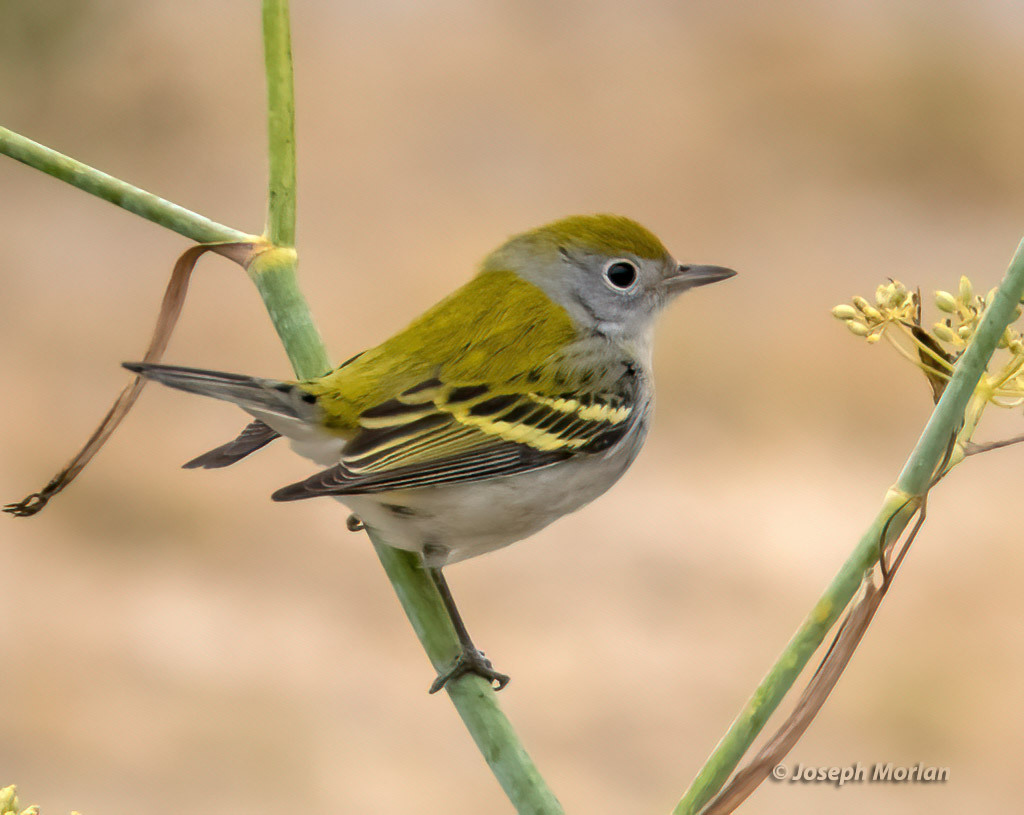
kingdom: Animalia
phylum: Chordata
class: Aves
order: Passeriformes
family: Parulidae
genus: Setophaga
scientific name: Setophaga pensylvanica
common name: Chestnut-sided warbler
